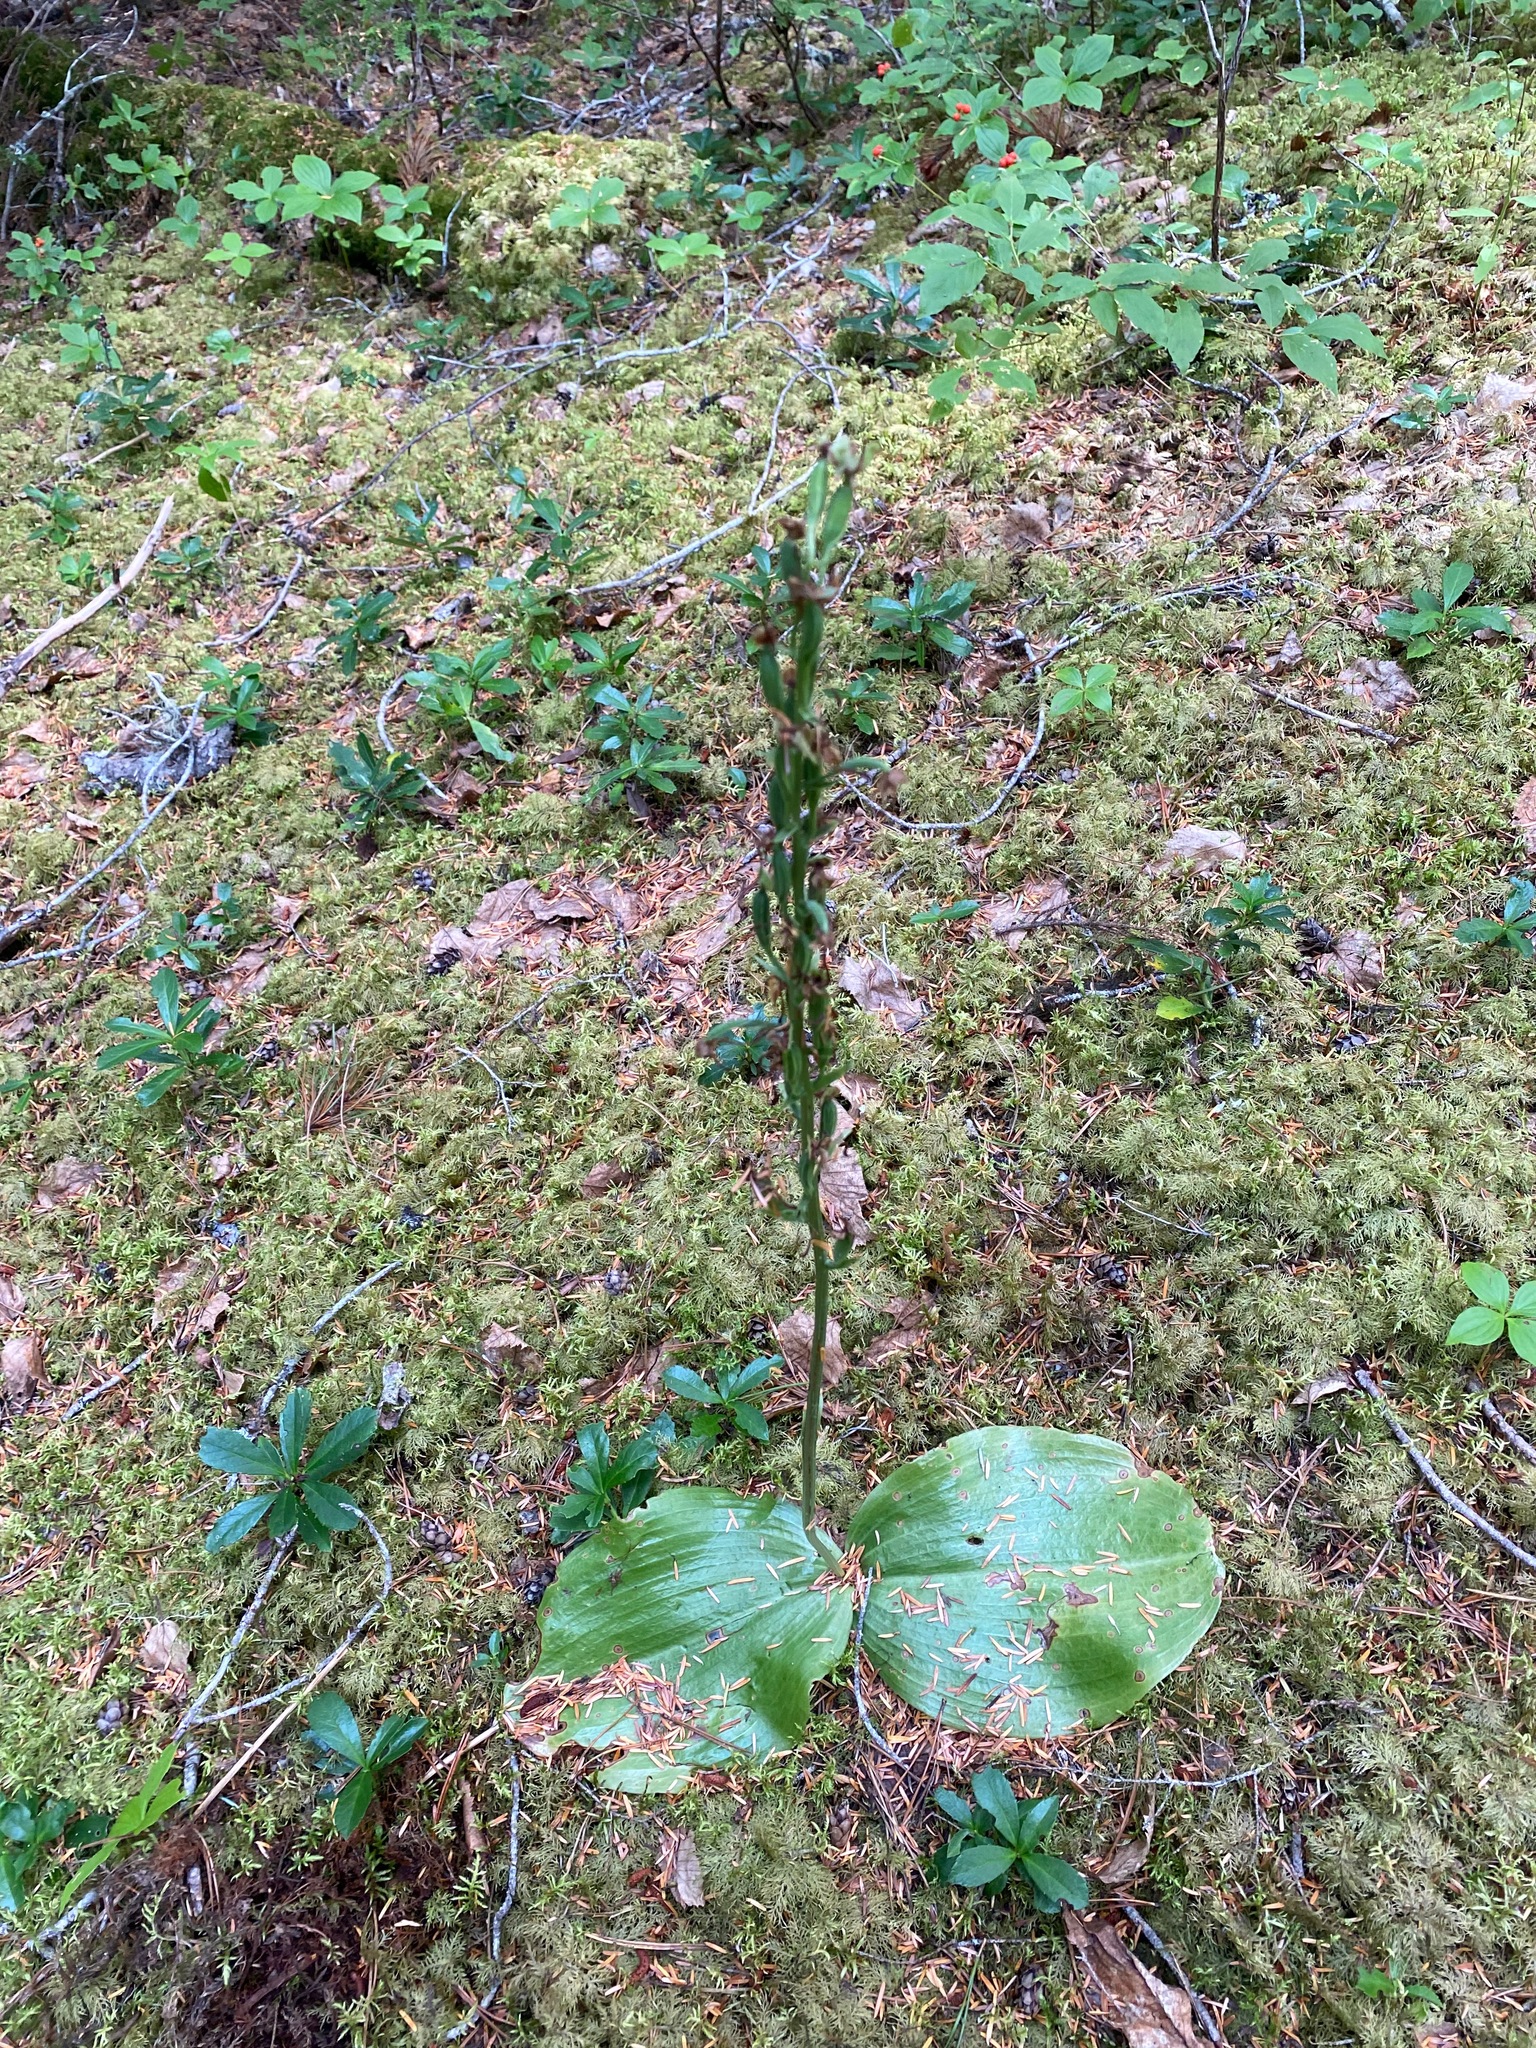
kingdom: Plantae
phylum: Tracheophyta
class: Liliopsida
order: Asparagales
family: Orchidaceae
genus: Platanthera
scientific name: Platanthera orbiculata
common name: Large round-leaved orchid
